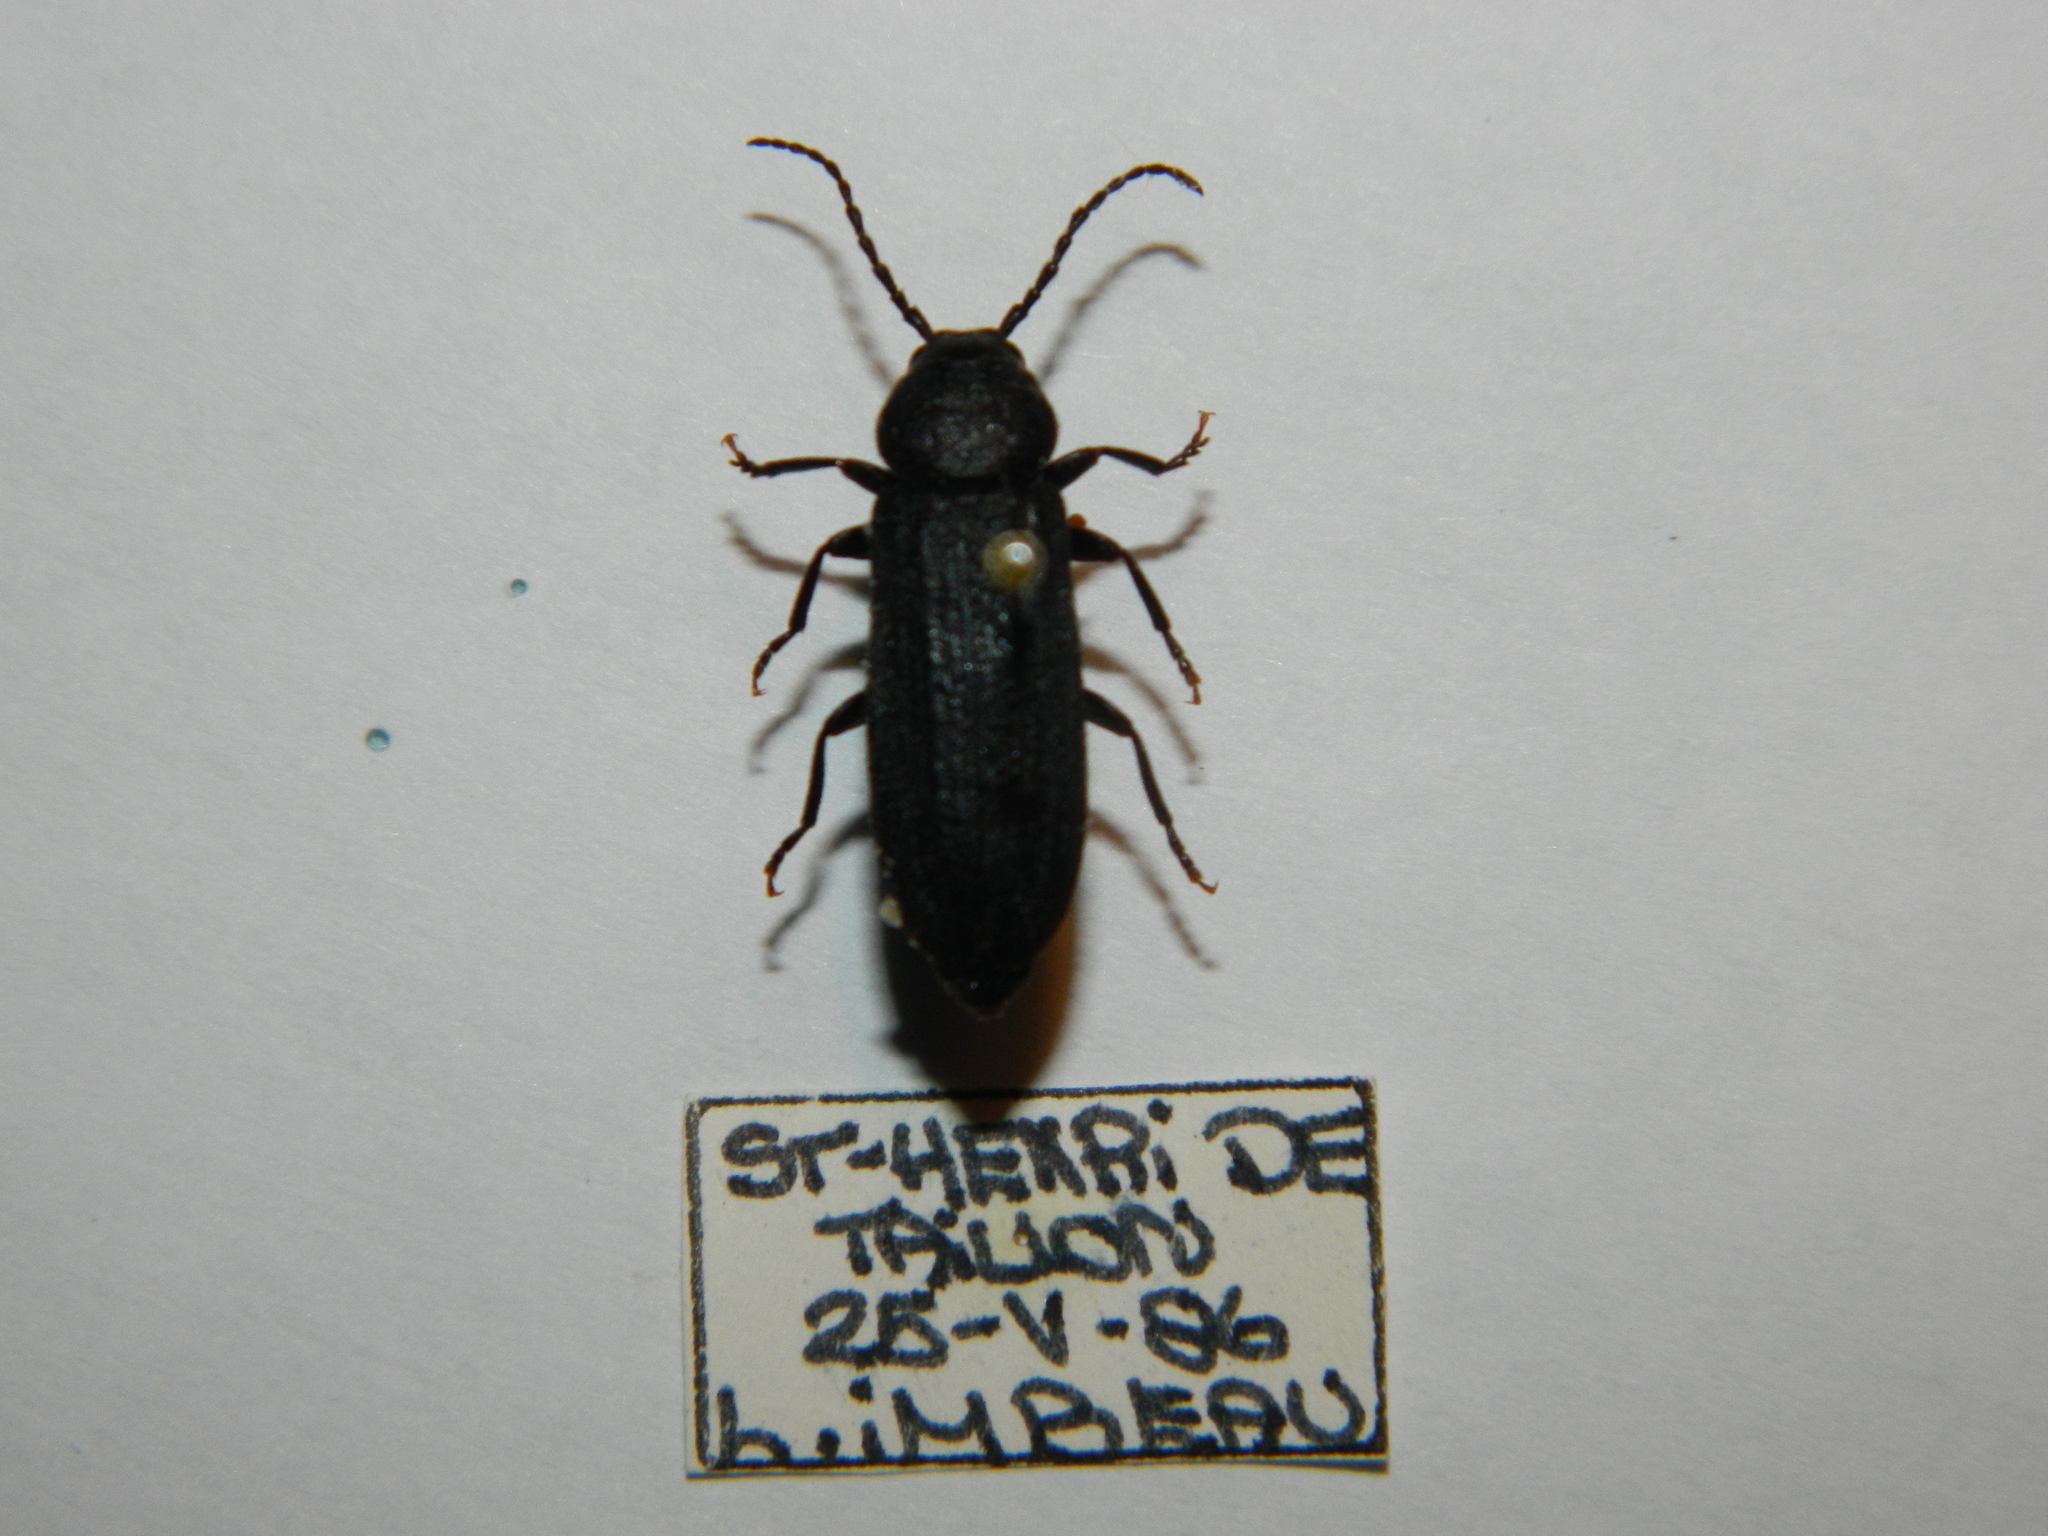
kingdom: Animalia
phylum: Arthropoda
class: Insecta
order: Coleoptera
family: Cerambycidae
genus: Asemum
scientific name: Asemum striatum
